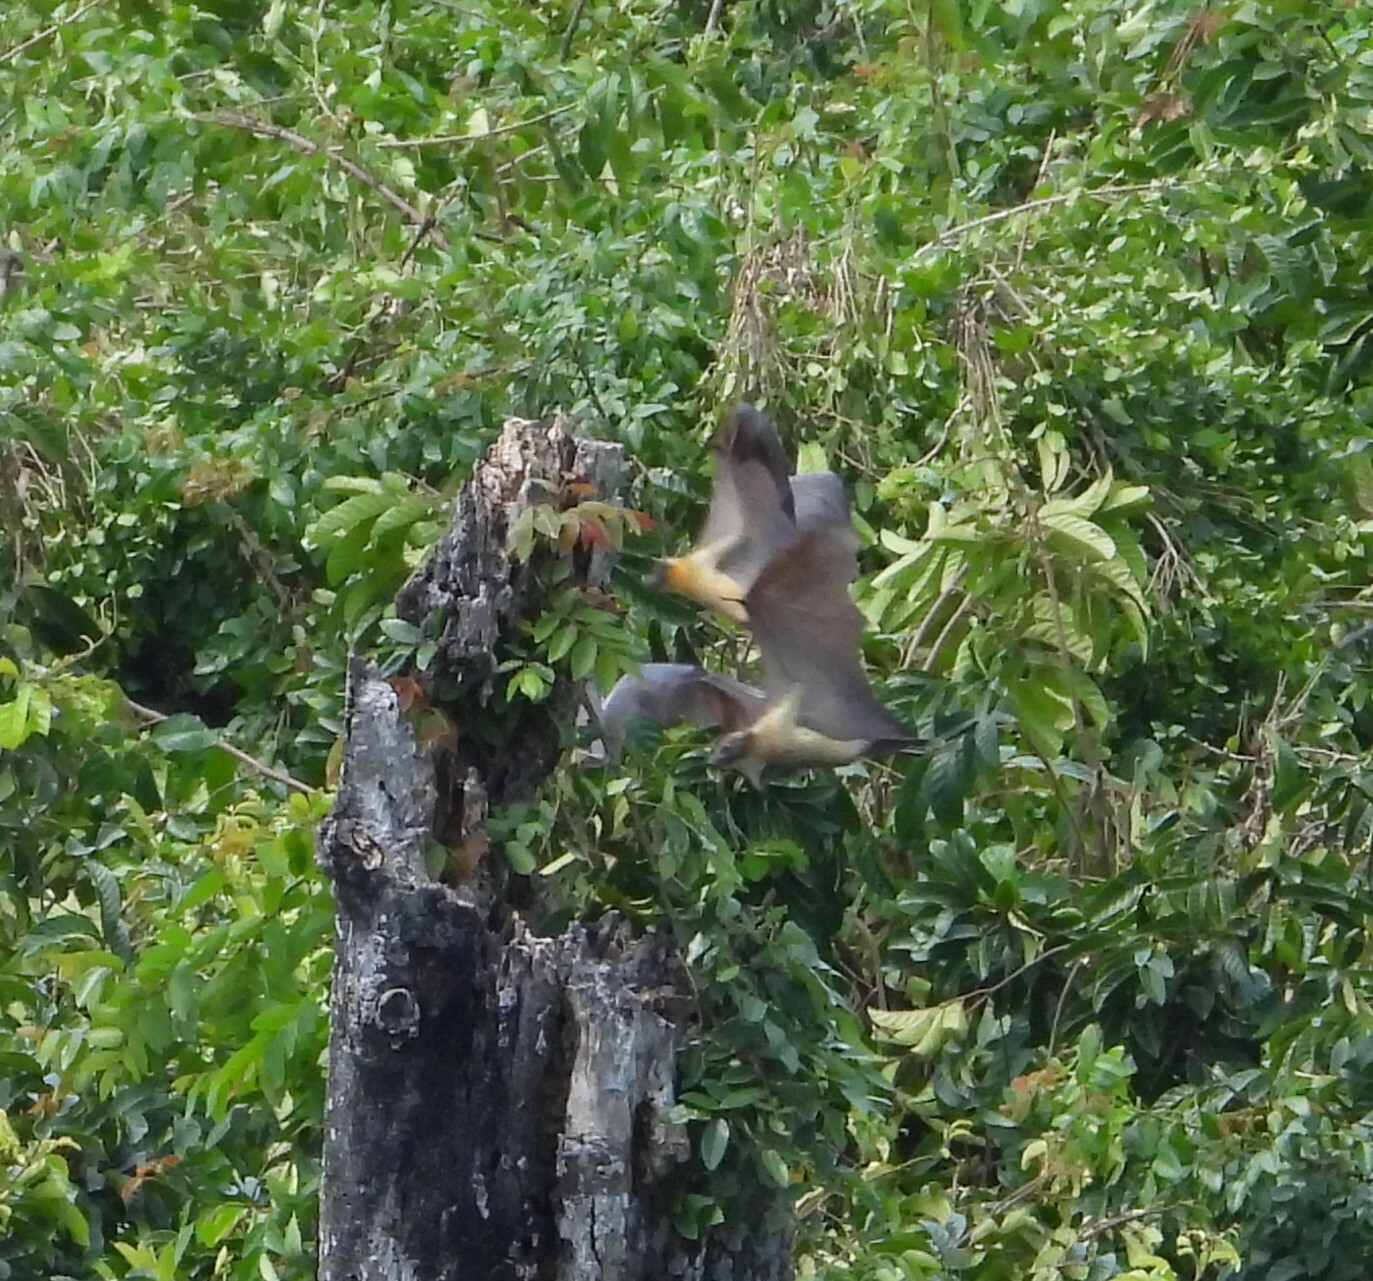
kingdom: Animalia
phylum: Chordata
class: Mammalia
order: Chiroptera
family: Pteropodidae
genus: Eidolon
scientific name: Eidolon helvum
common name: Straw-colored fruit bat
